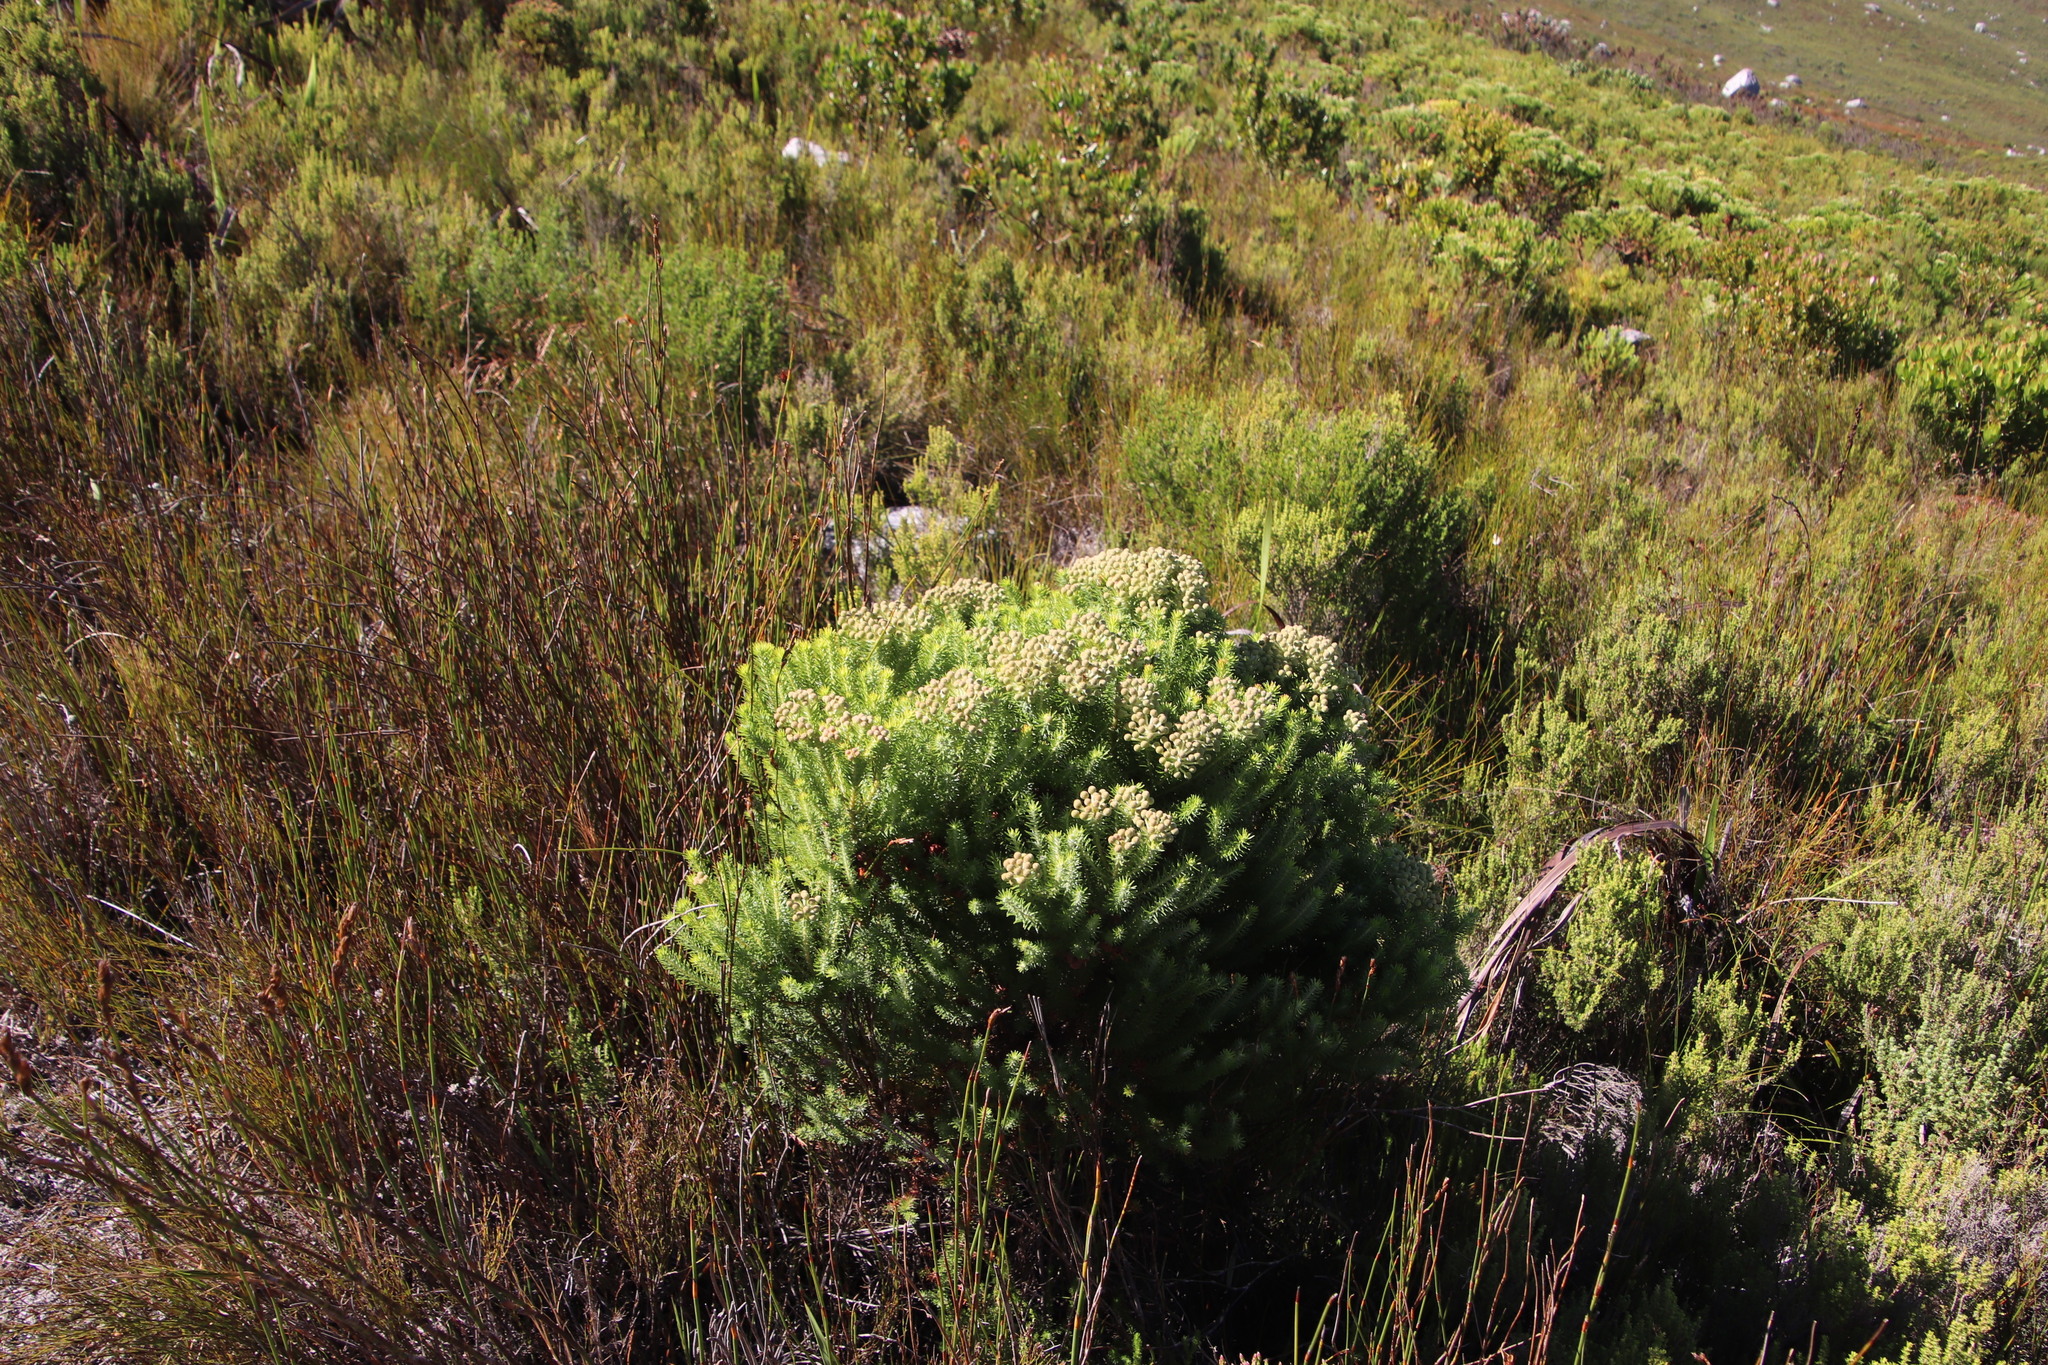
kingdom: Plantae
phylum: Tracheophyta
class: Magnoliopsida
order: Bruniales
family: Bruniaceae
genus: Berzelia
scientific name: Berzelia intermedia
